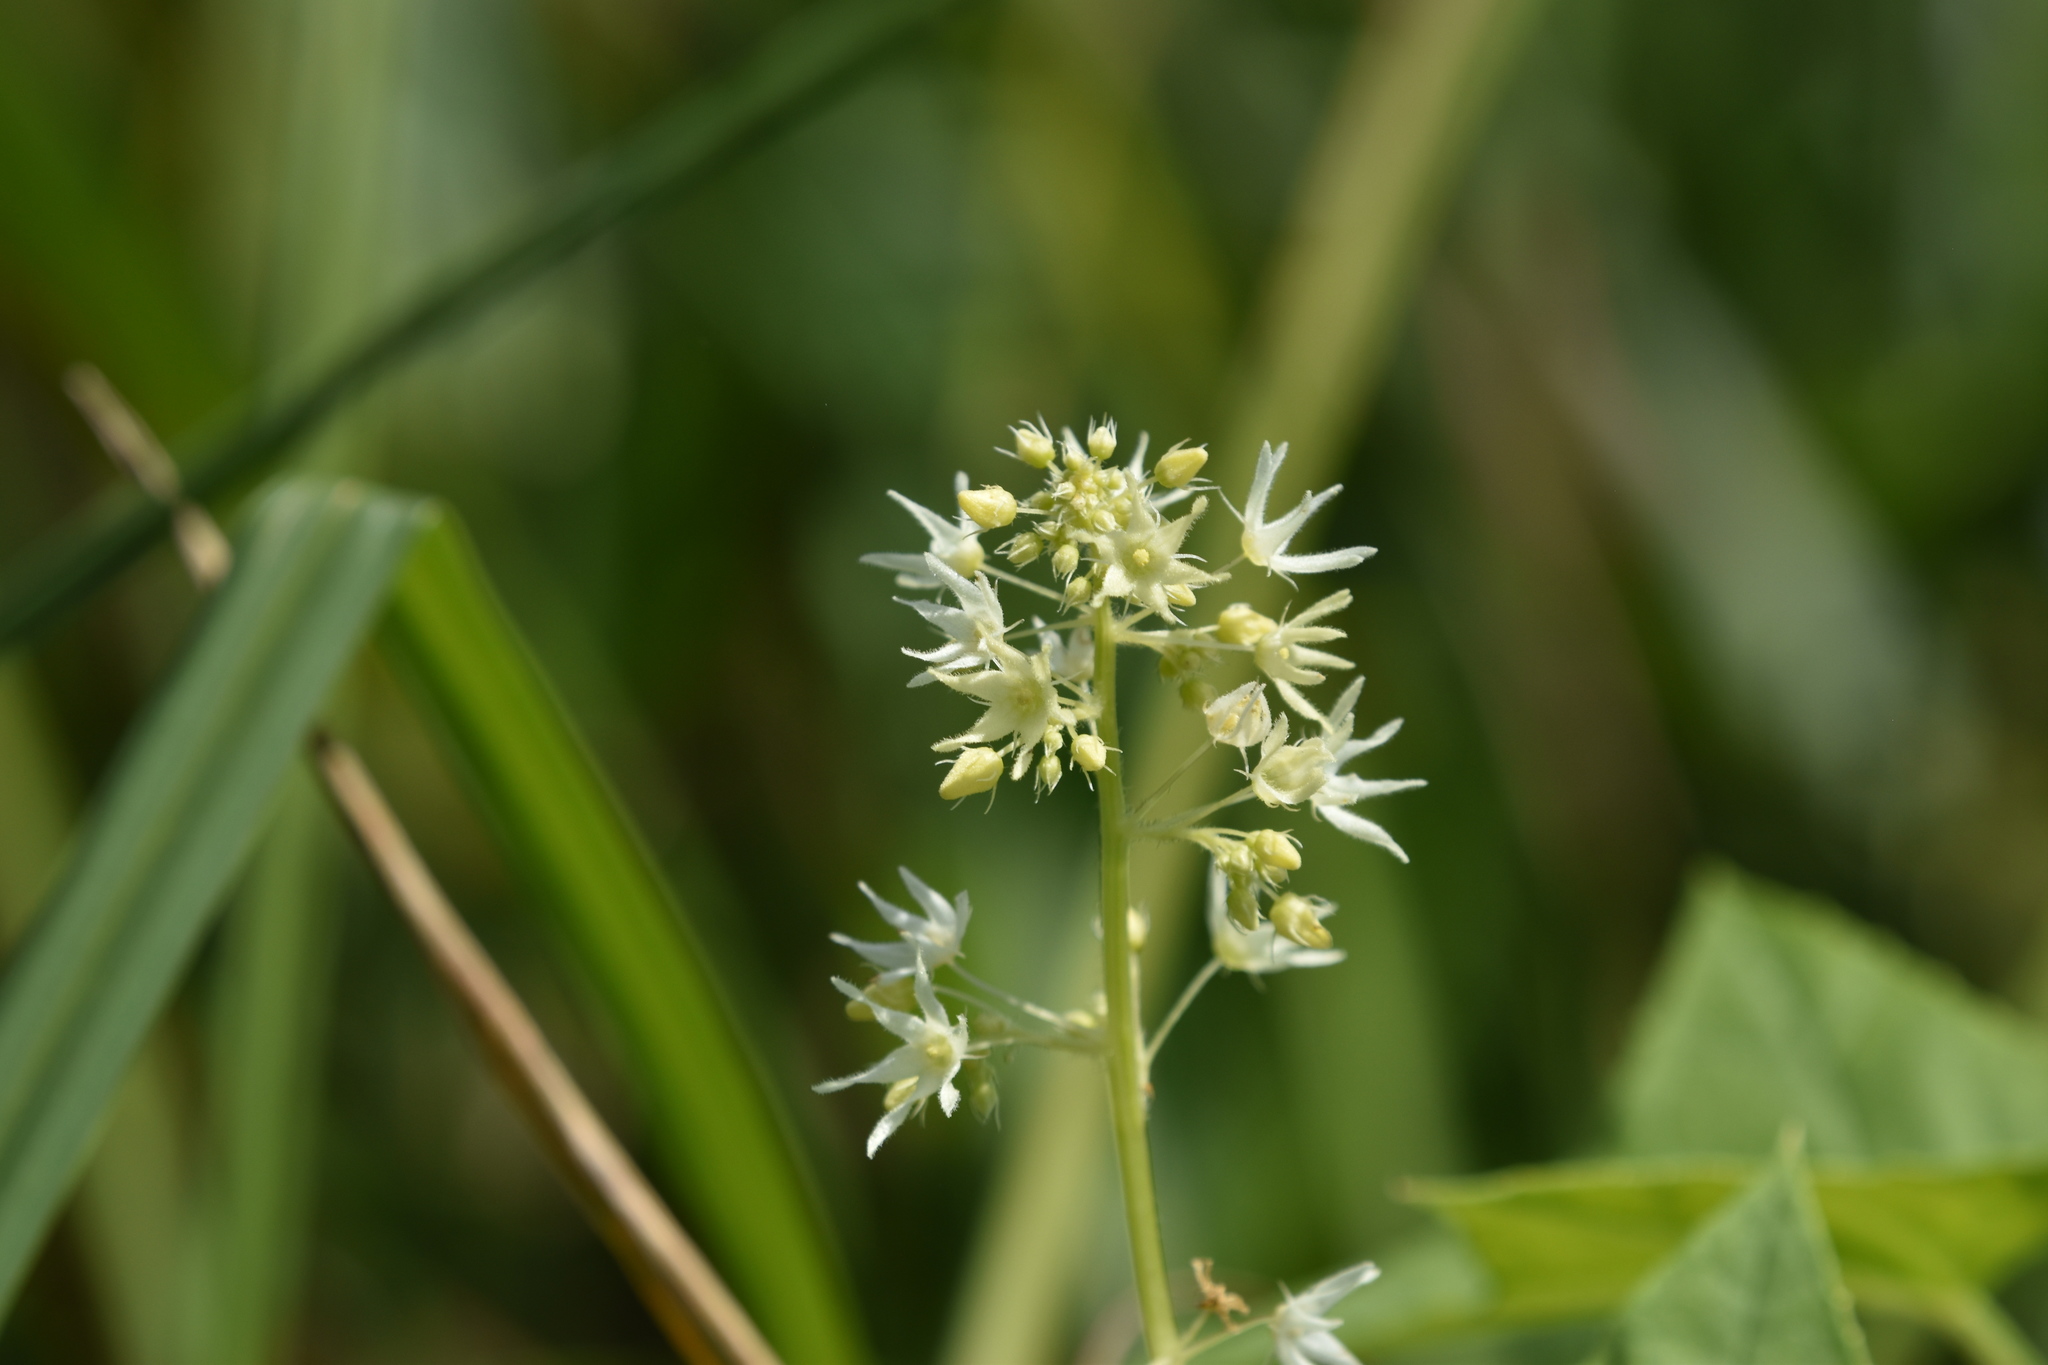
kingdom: Plantae
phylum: Tracheophyta
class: Magnoliopsida
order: Cucurbitales
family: Cucurbitaceae
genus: Echinocystis
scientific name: Echinocystis lobata
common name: Wild cucumber
